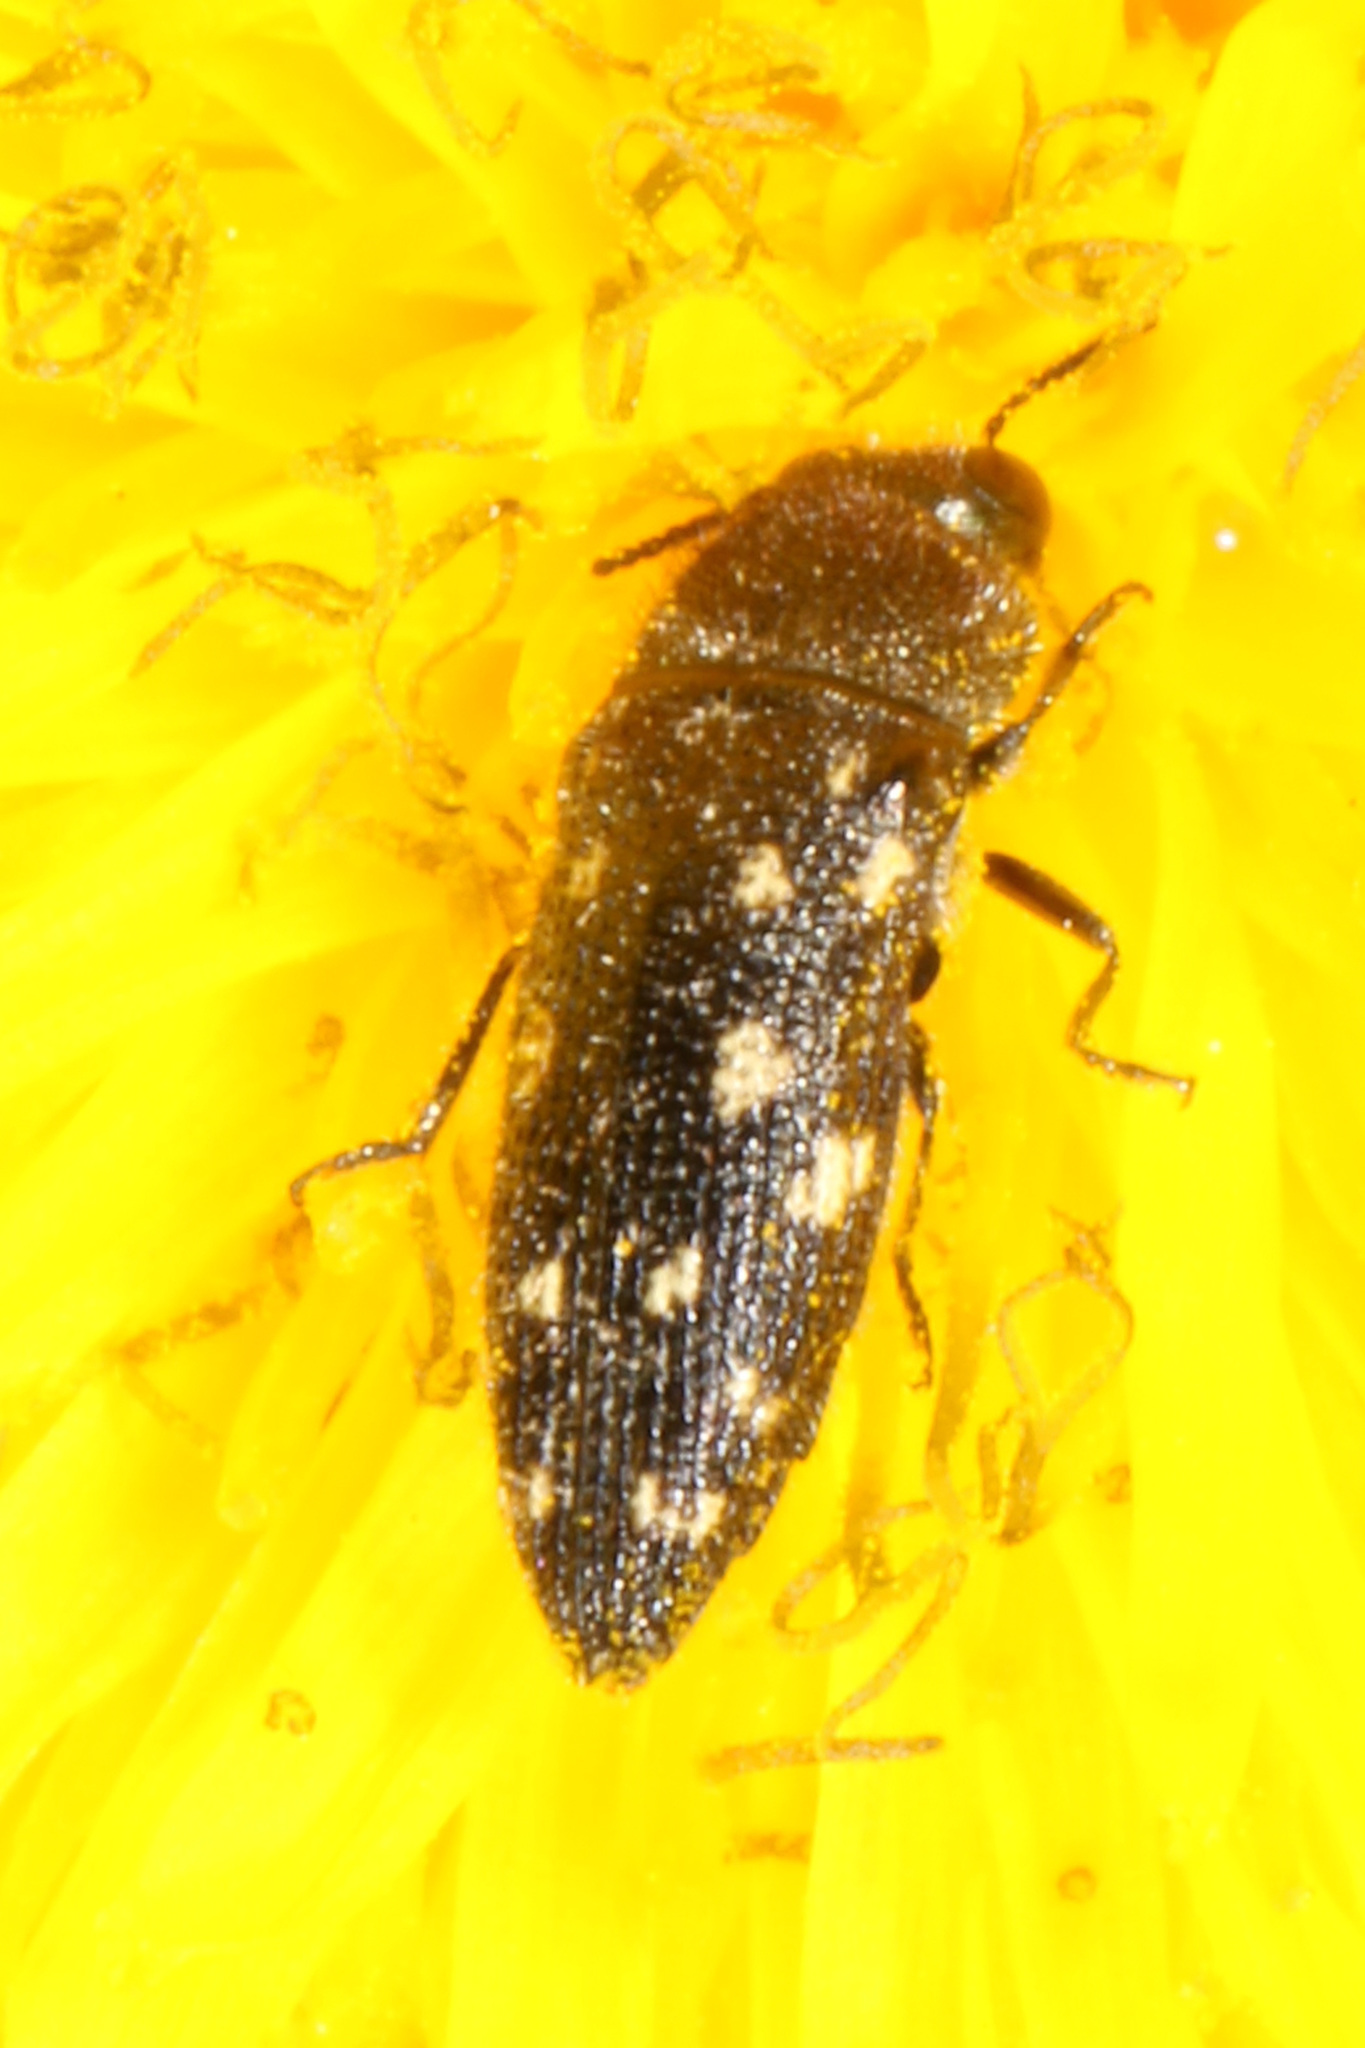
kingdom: Animalia
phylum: Arthropoda
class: Insecta
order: Coleoptera
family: Buprestidae
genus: Acmaeodera
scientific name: Acmaeodera tubulus
